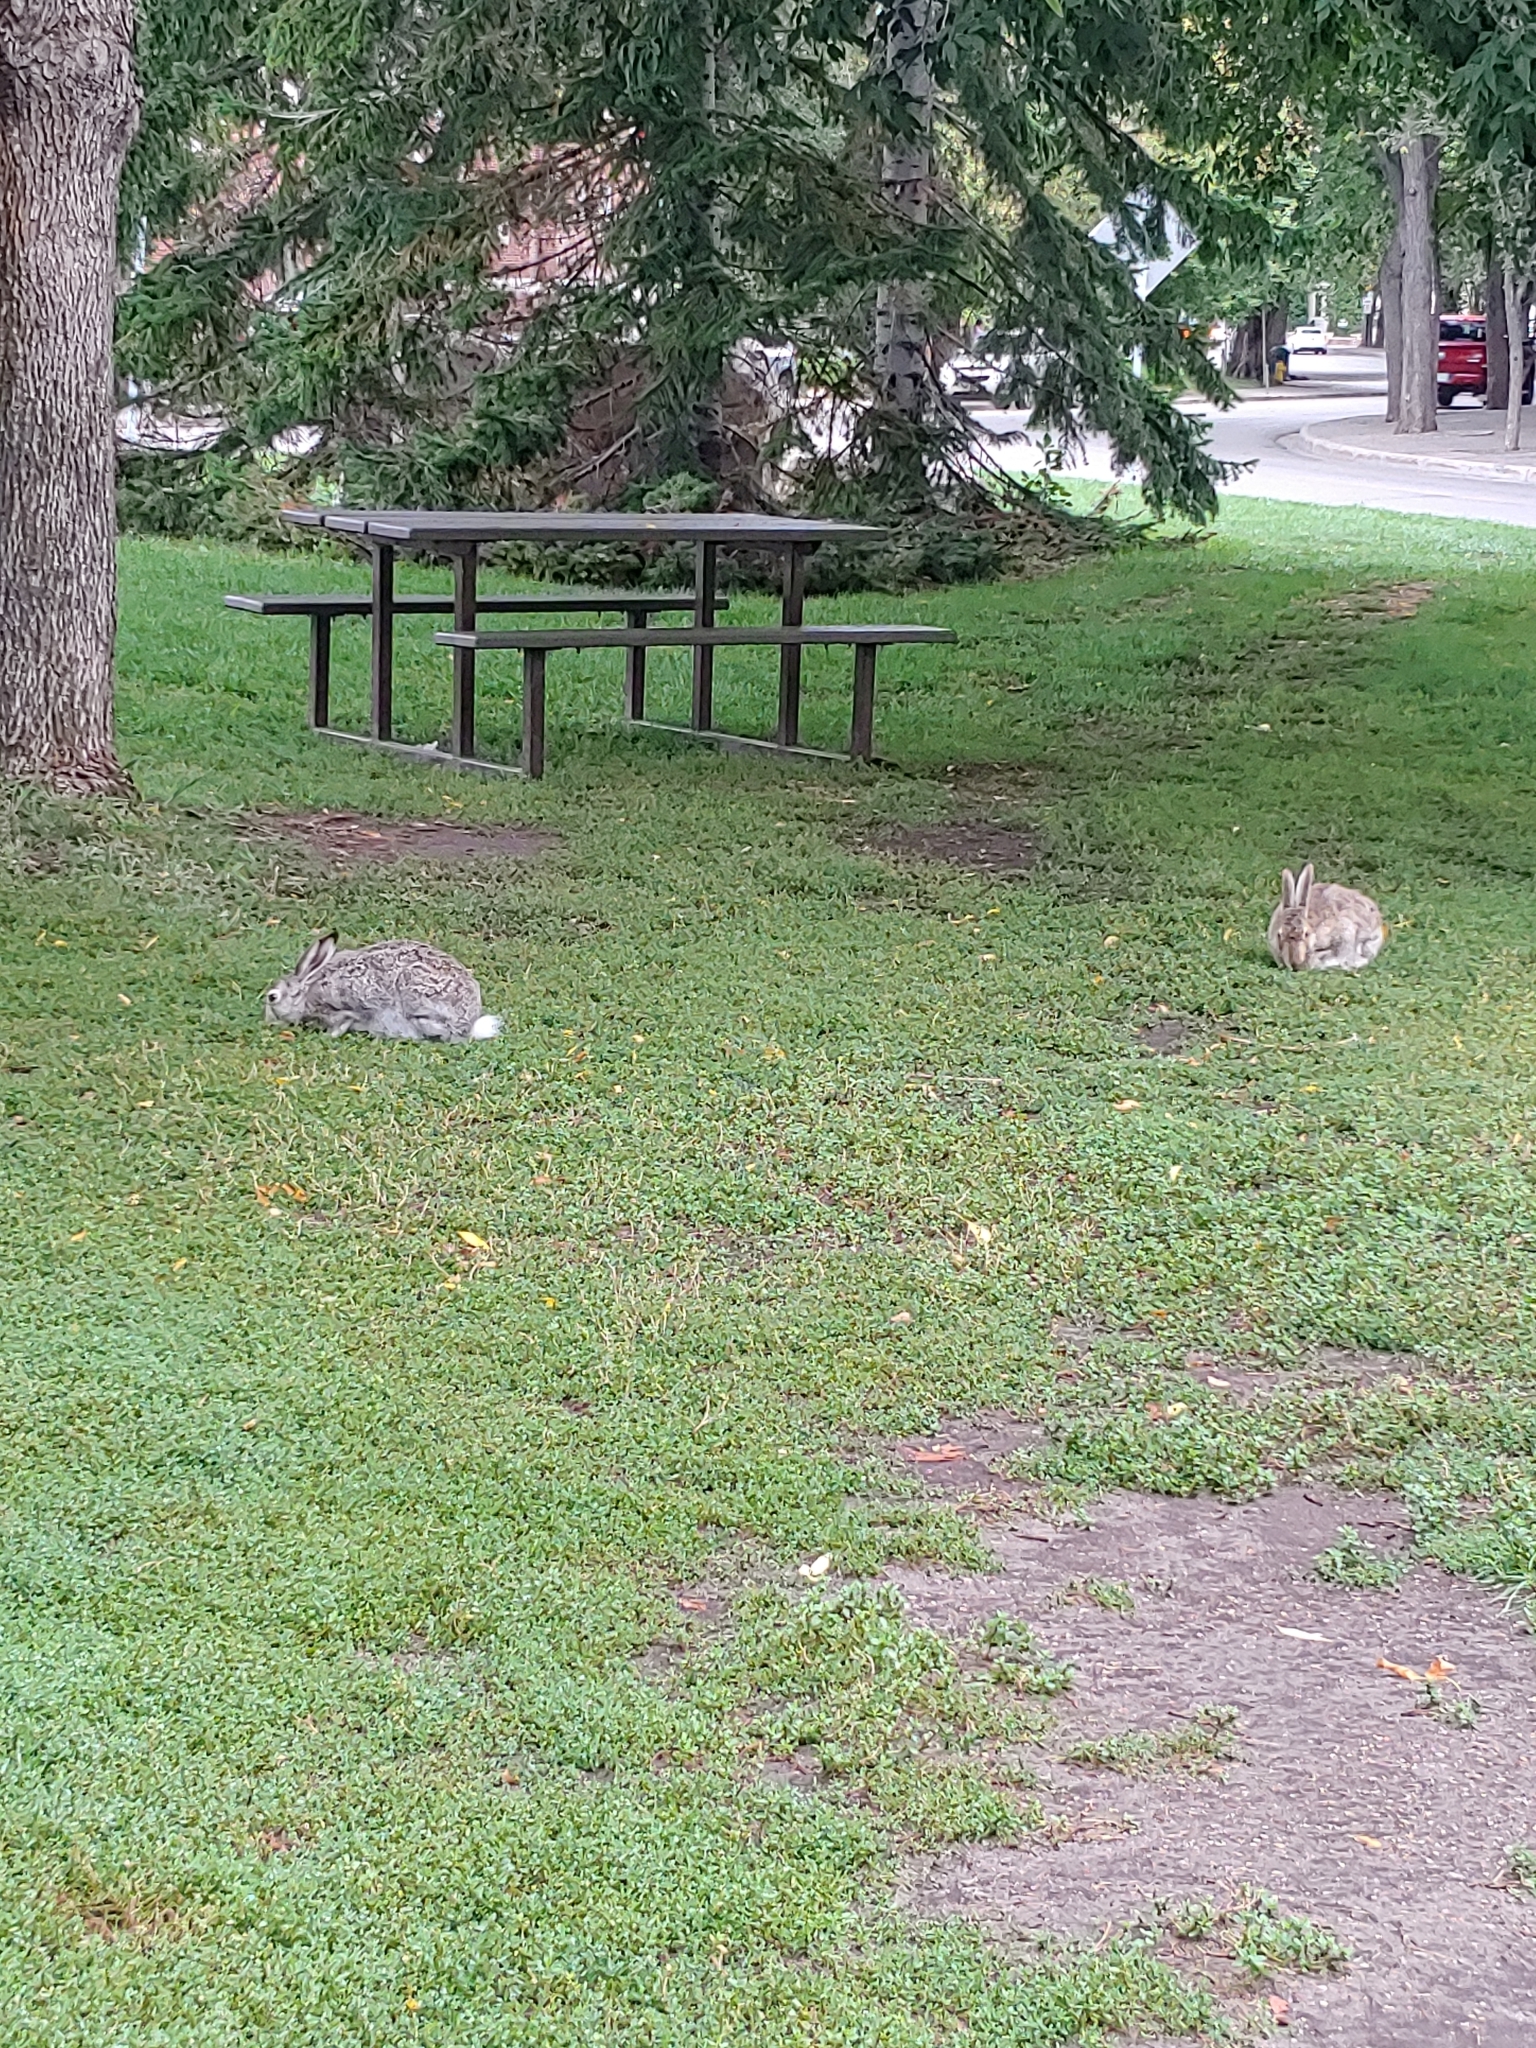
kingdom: Animalia
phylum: Chordata
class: Mammalia
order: Lagomorpha
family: Leporidae
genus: Lepus
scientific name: Lepus townsendii
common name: White-tailed jackrabbit
